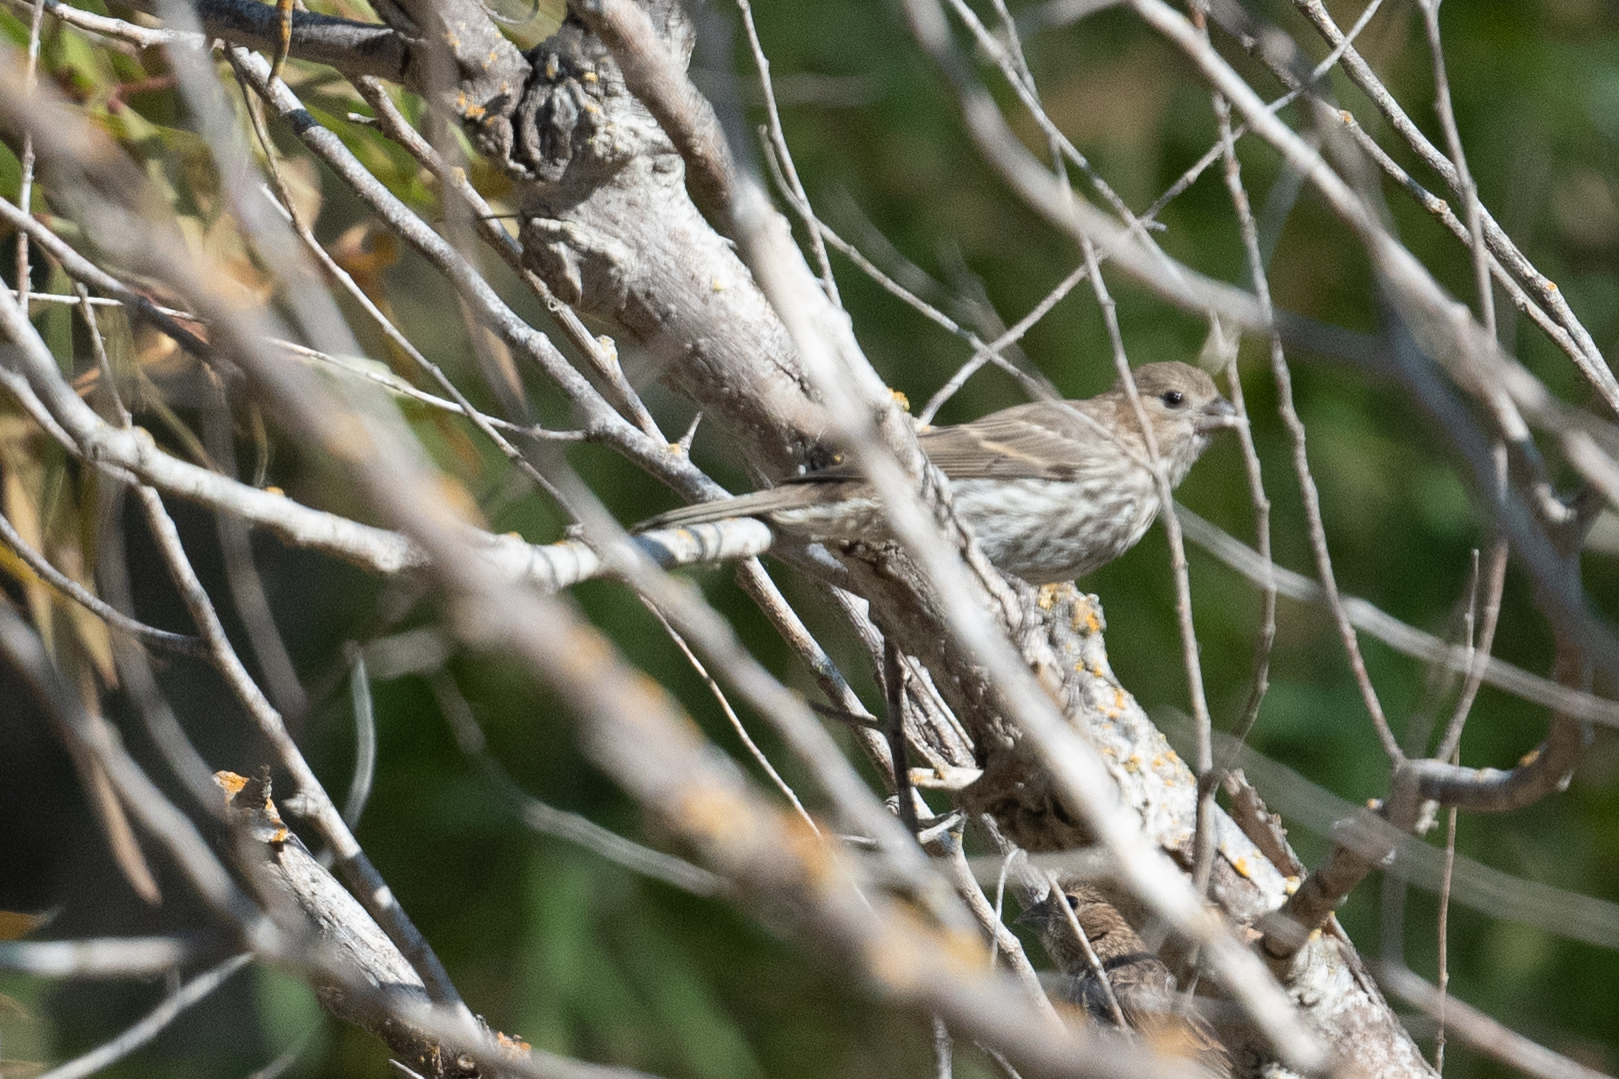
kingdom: Animalia
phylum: Chordata
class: Aves
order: Passeriformes
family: Fringillidae
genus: Haemorhous
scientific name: Haemorhous mexicanus
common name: House finch
